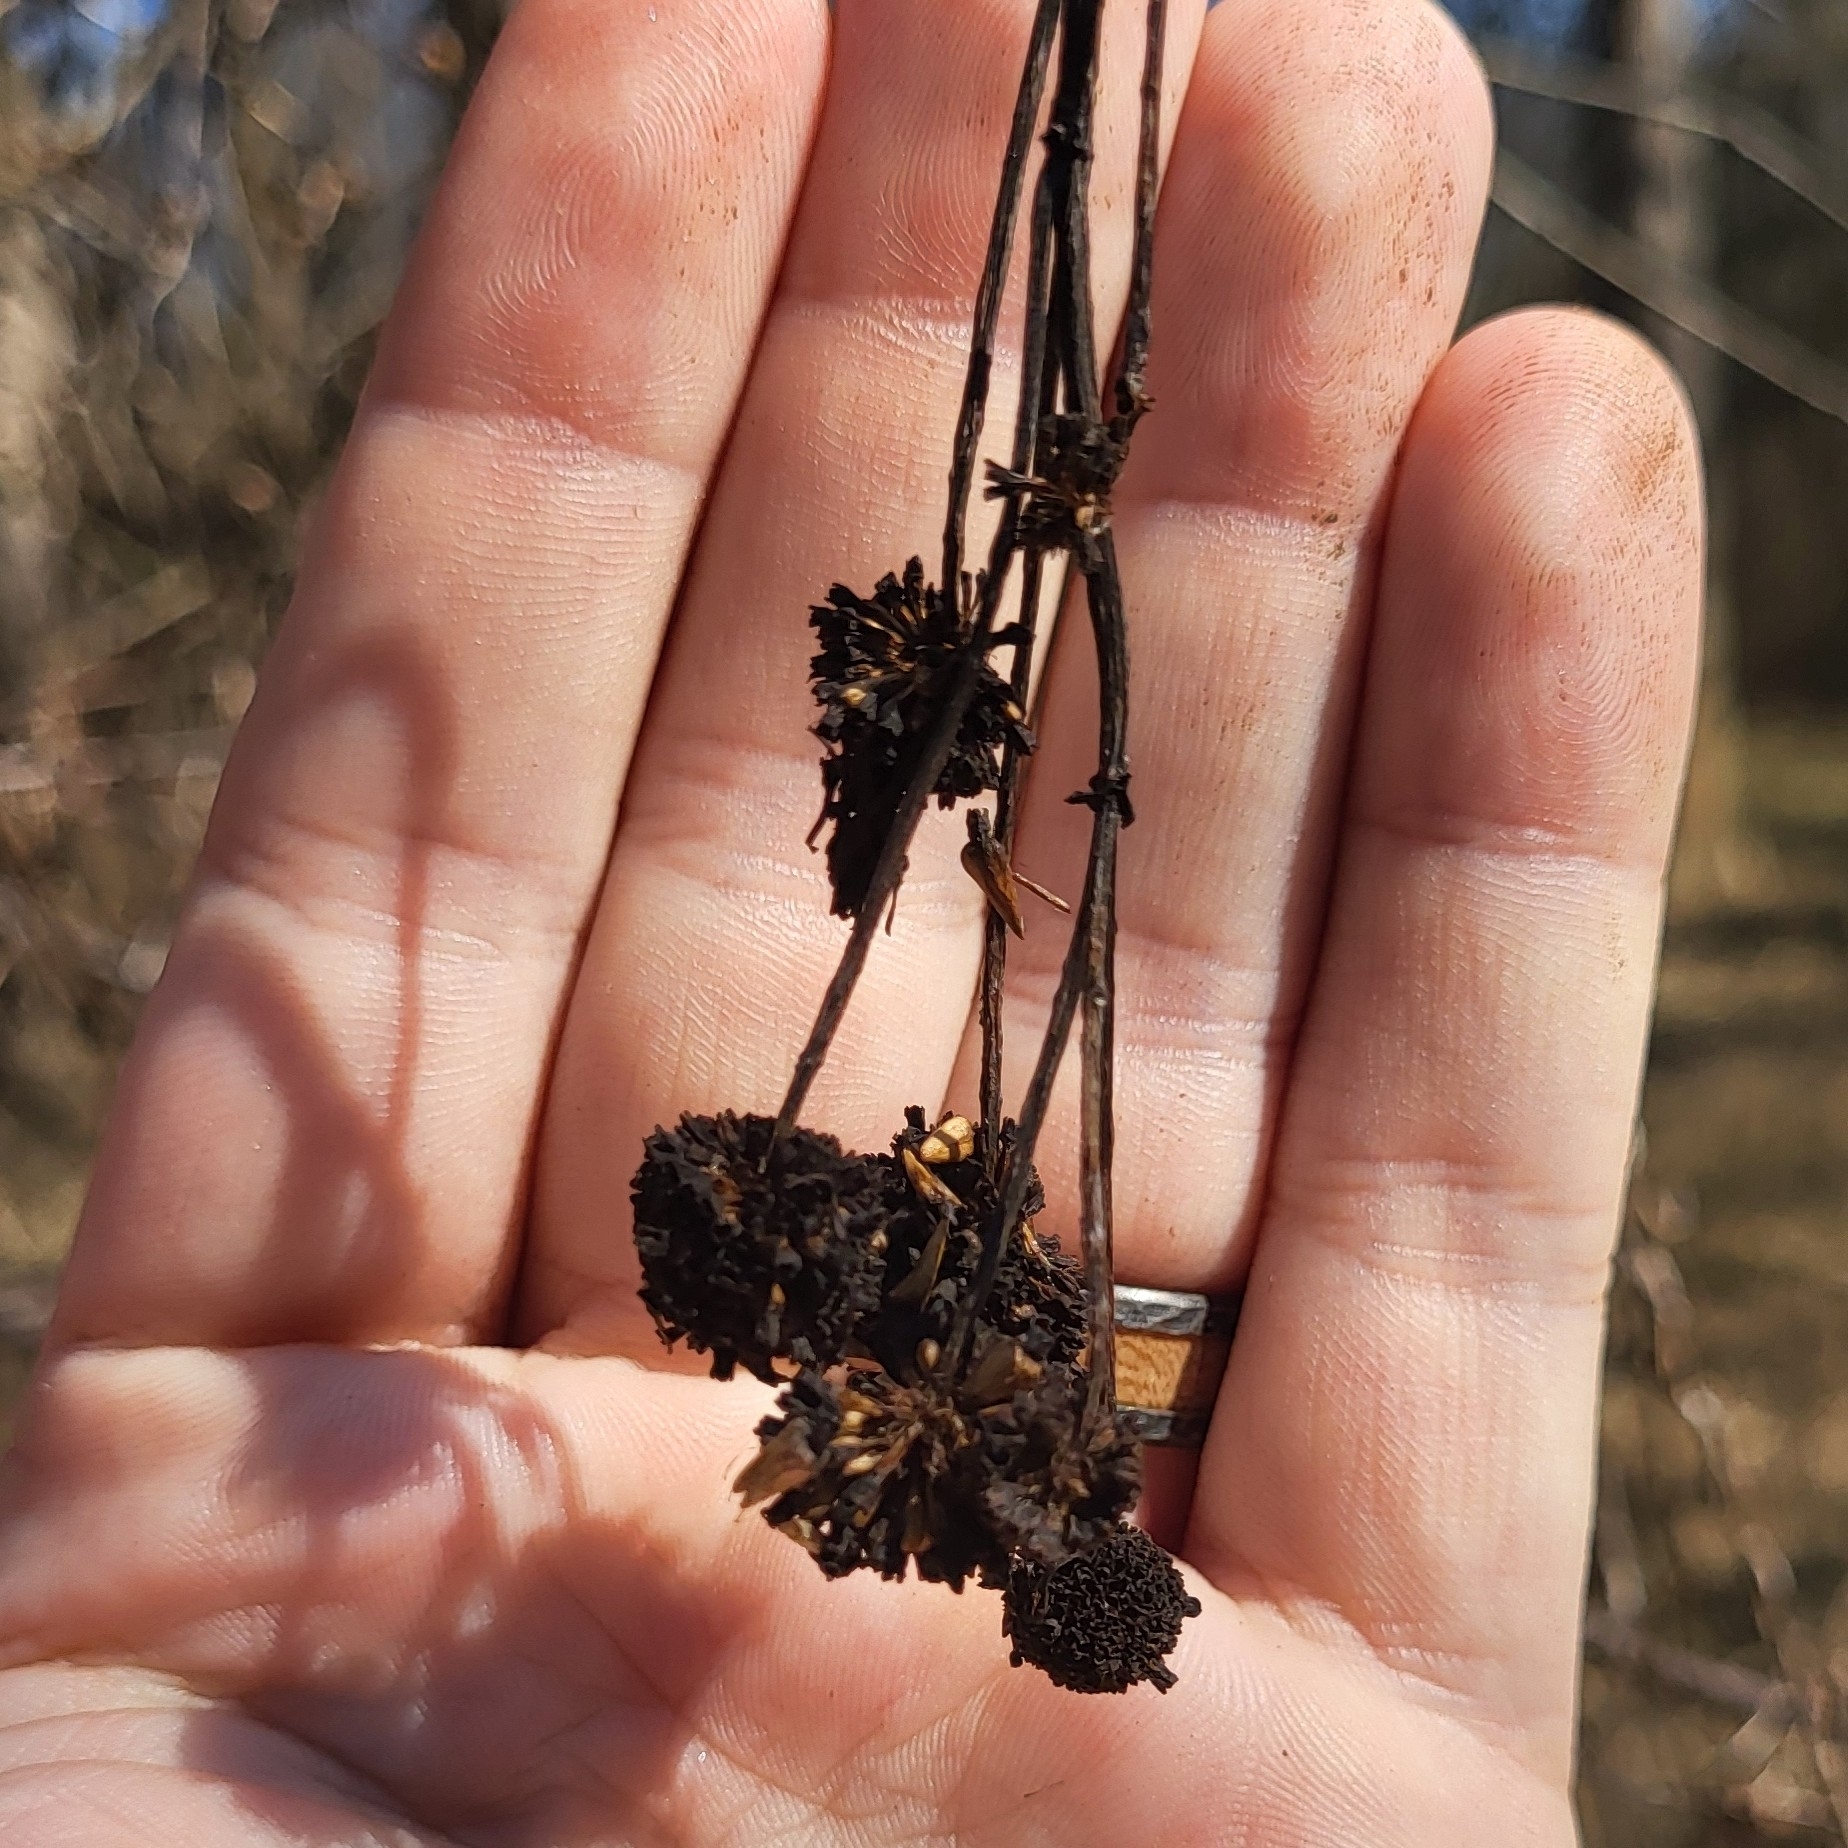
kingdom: Plantae
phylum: Tracheophyta
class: Magnoliopsida
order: Gentianales
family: Rubiaceae
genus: Cephalanthus
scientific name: Cephalanthus occidentalis
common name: Button-willow
